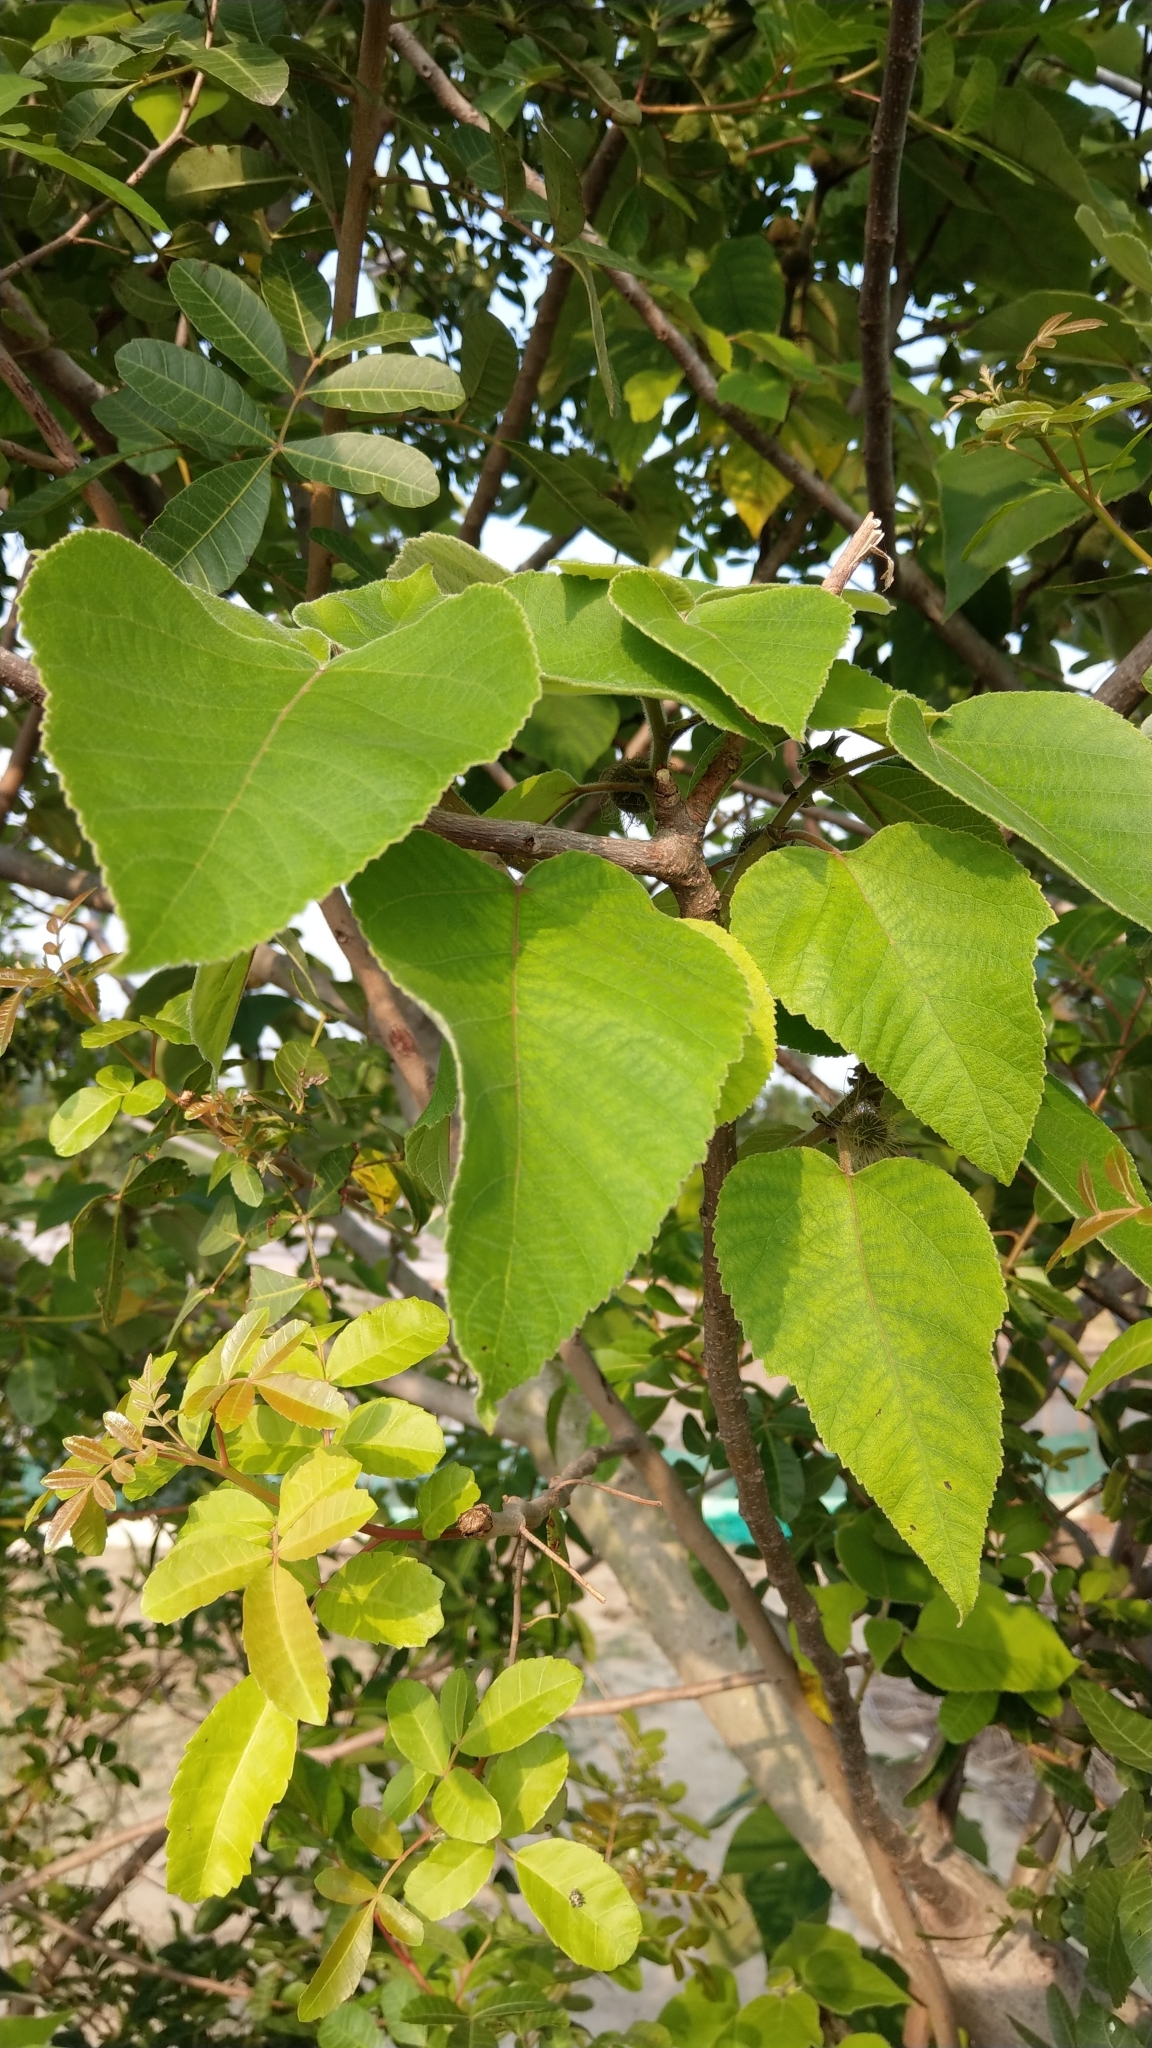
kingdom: Plantae
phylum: Tracheophyta
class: Magnoliopsida
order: Rosales
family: Moraceae
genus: Broussonetia
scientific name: Broussonetia papyrifera
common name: Paper mulberry
